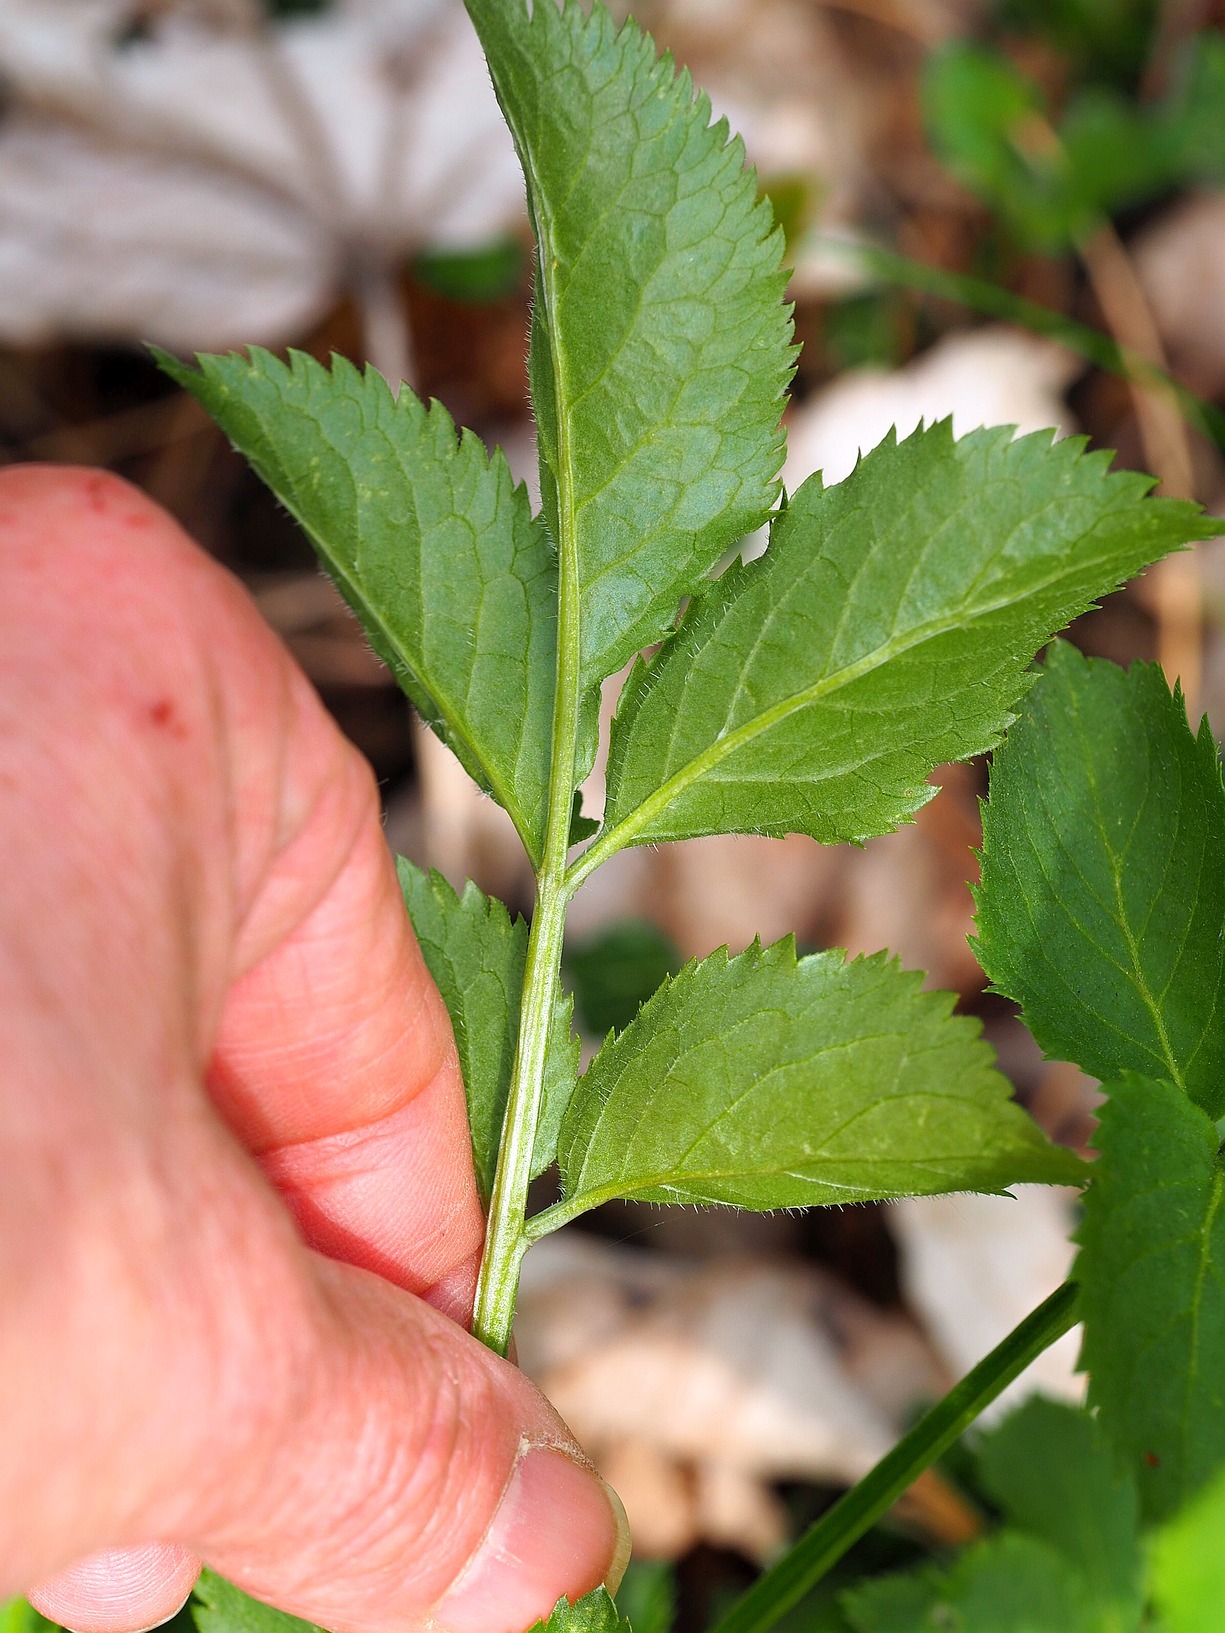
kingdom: Plantae
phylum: Tracheophyta
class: Magnoliopsida
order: Dipsacales
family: Viburnaceae
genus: Sambucus
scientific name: Sambucus nigra
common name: Elder
